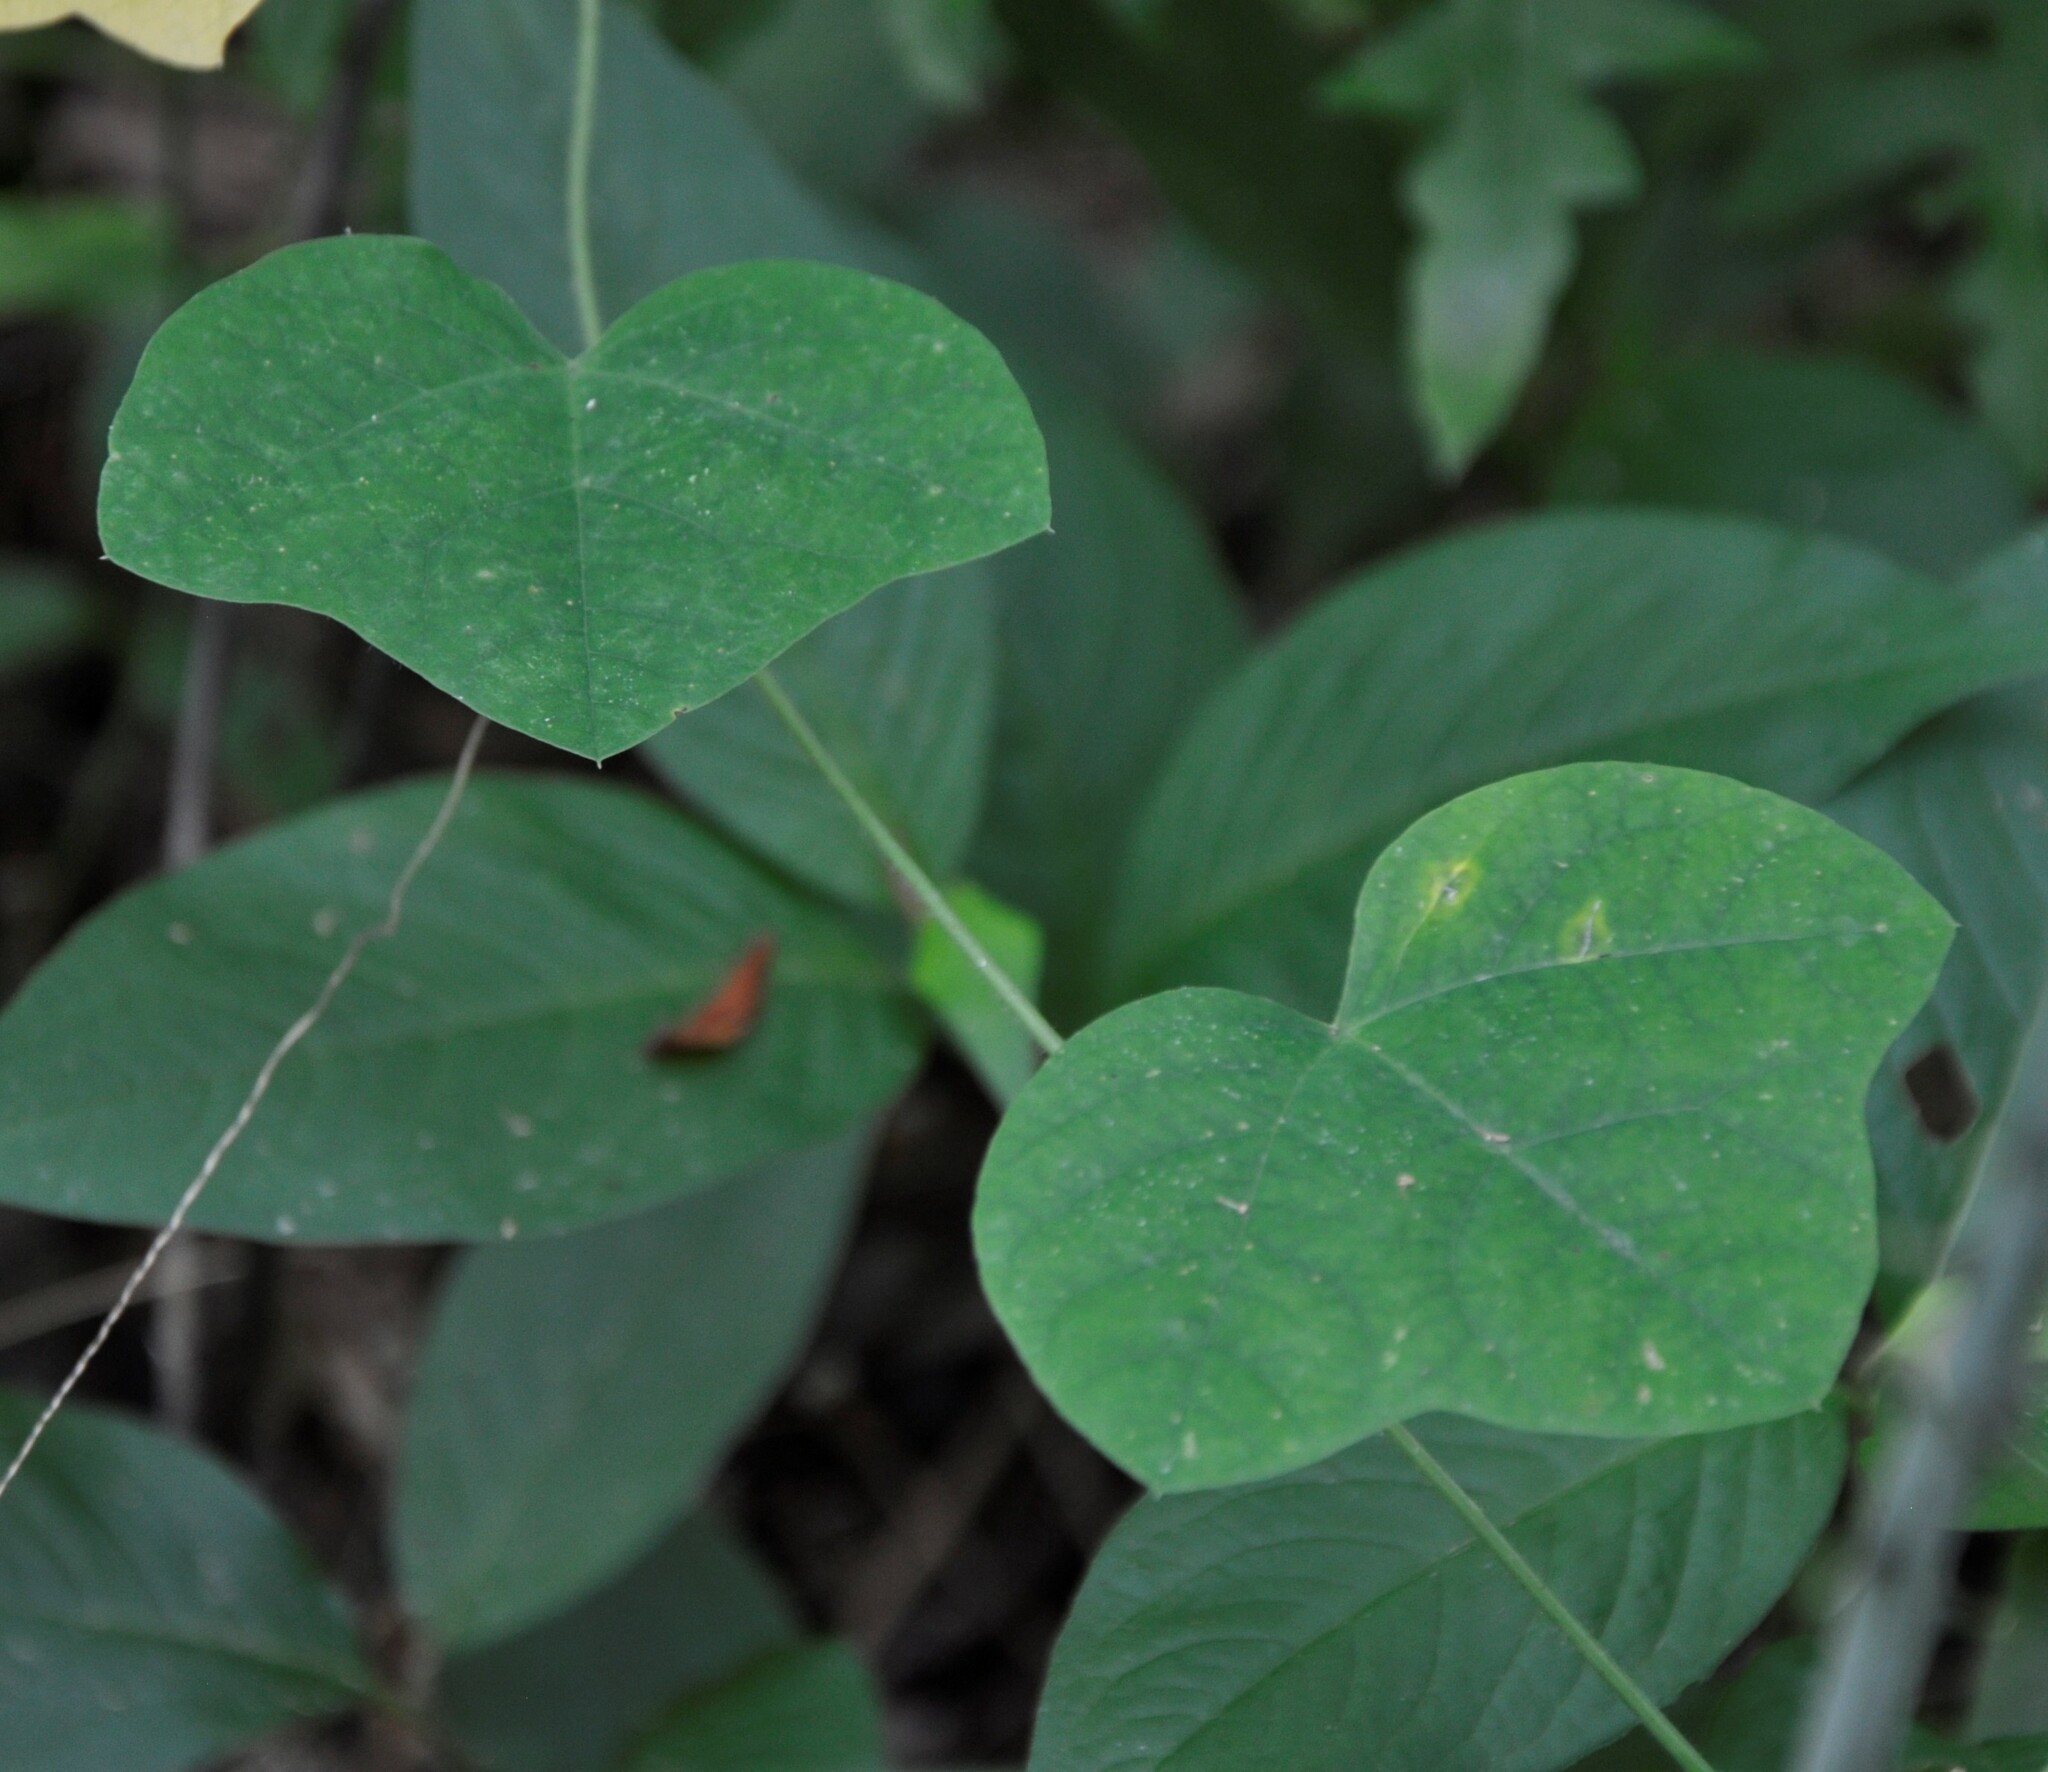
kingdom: Plantae
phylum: Tracheophyta
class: Magnoliopsida
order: Malpighiales
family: Passifloraceae
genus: Passiflora
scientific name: Passiflora lutea
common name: Yellow passionflower
